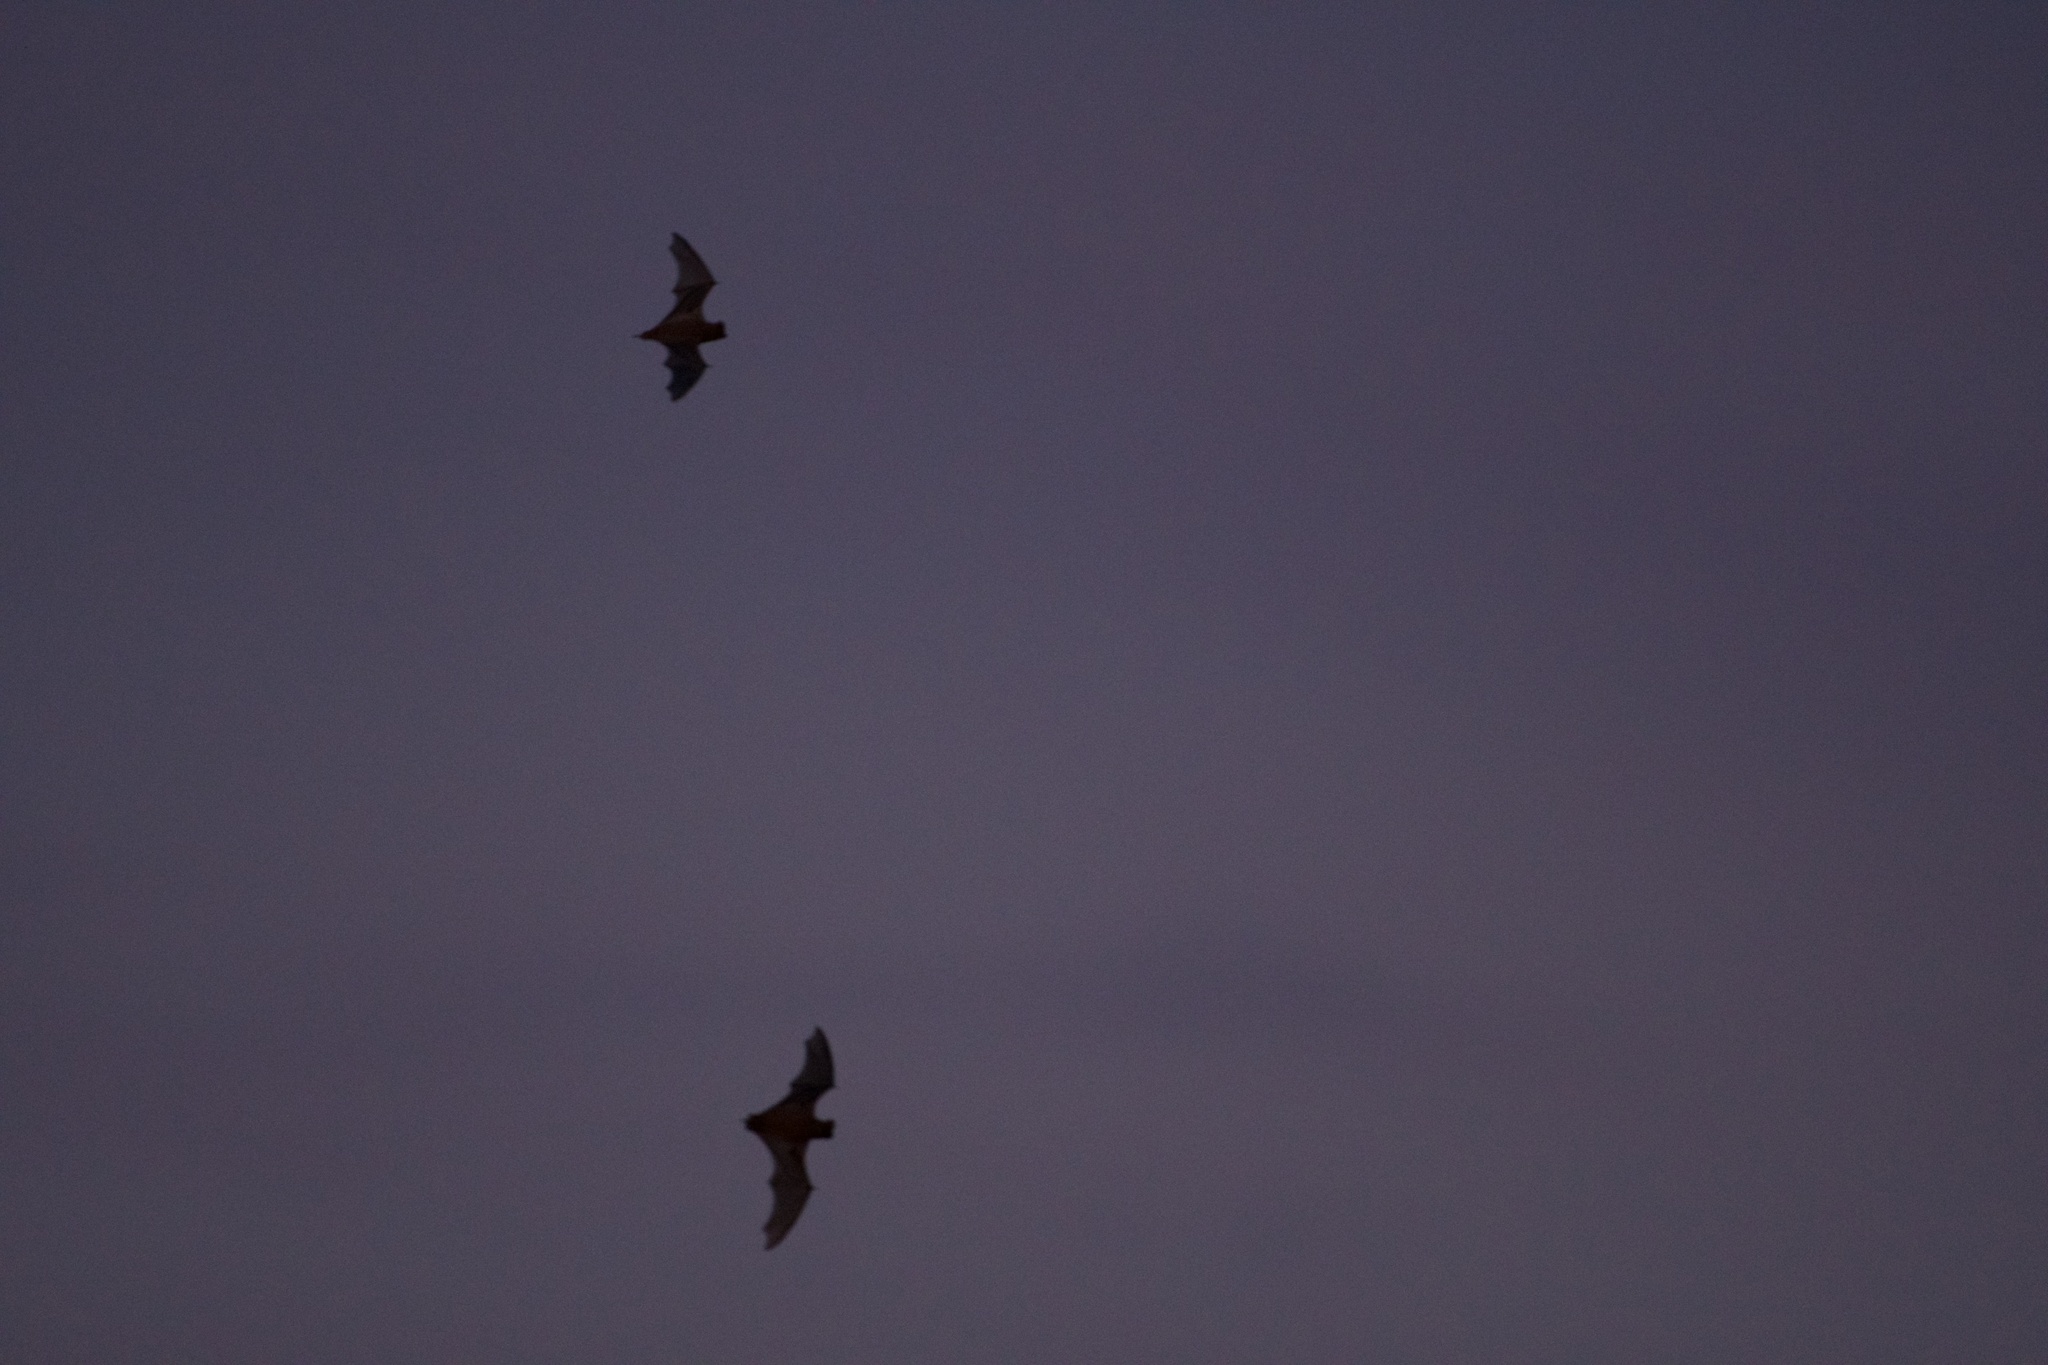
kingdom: Animalia
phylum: Chordata
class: Mammalia
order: Chiroptera
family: Molossidae
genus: Tadarida
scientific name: Tadarida brasiliensis
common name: Mexican free-tailed bat
